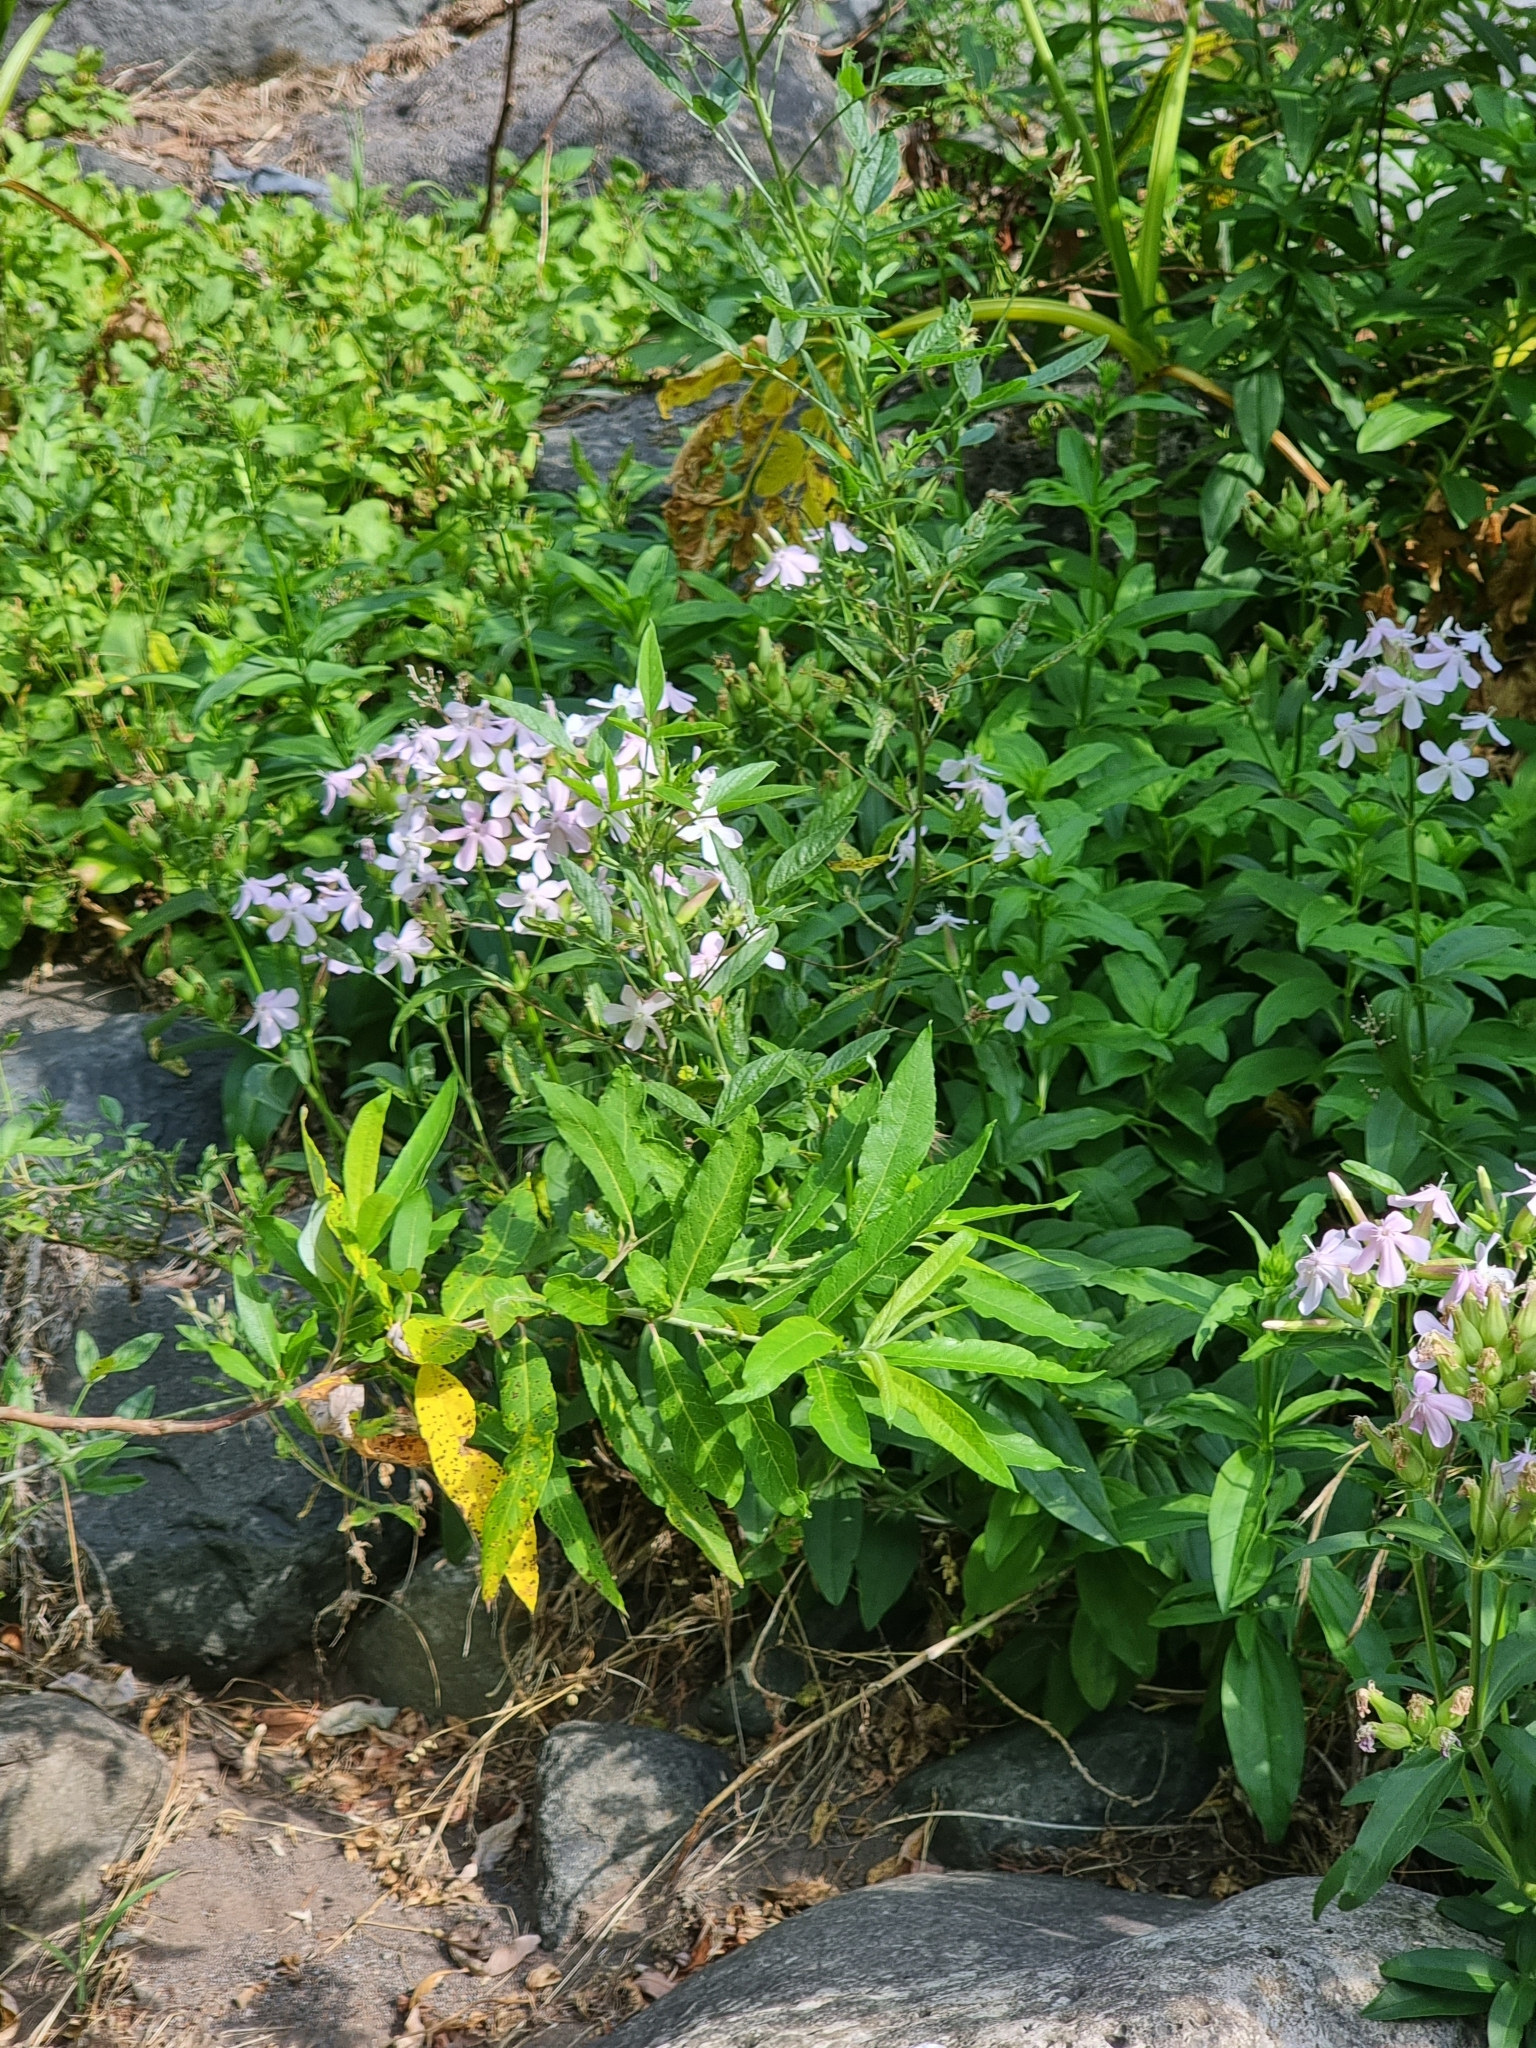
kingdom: Plantae
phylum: Tracheophyta
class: Magnoliopsida
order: Caryophyllales
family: Caryophyllaceae
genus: Saponaria
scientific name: Saponaria officinalis
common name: Soapwort
